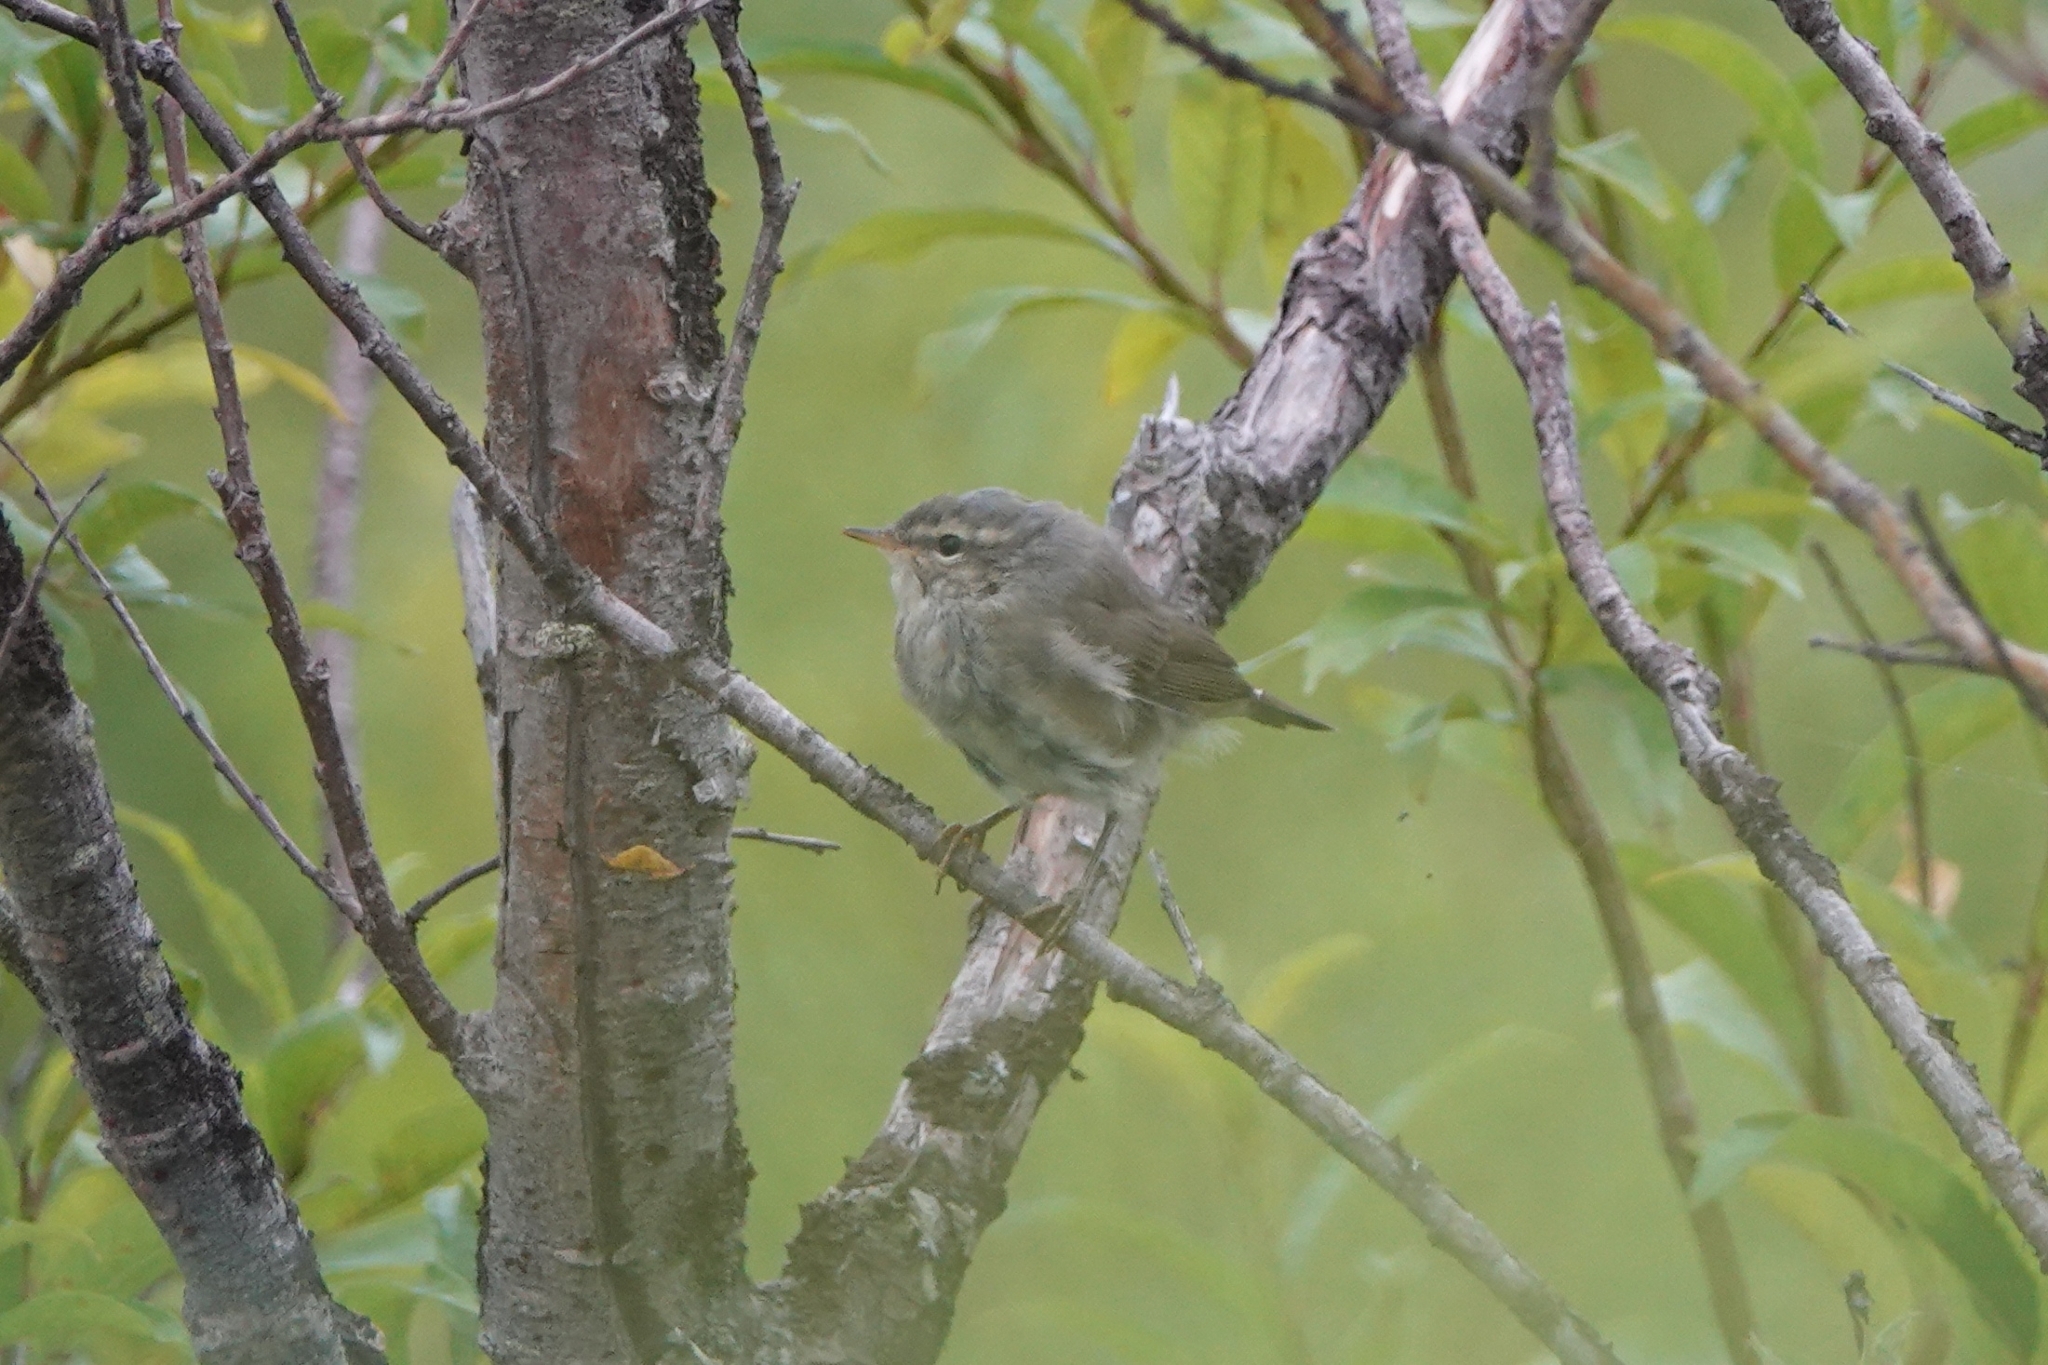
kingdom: Animalia
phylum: Chordata
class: Aves
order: Passeriformes
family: Phylloscopidae
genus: Phylloscopus
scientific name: Phylloscopus fuscatus
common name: Dusky warbler
